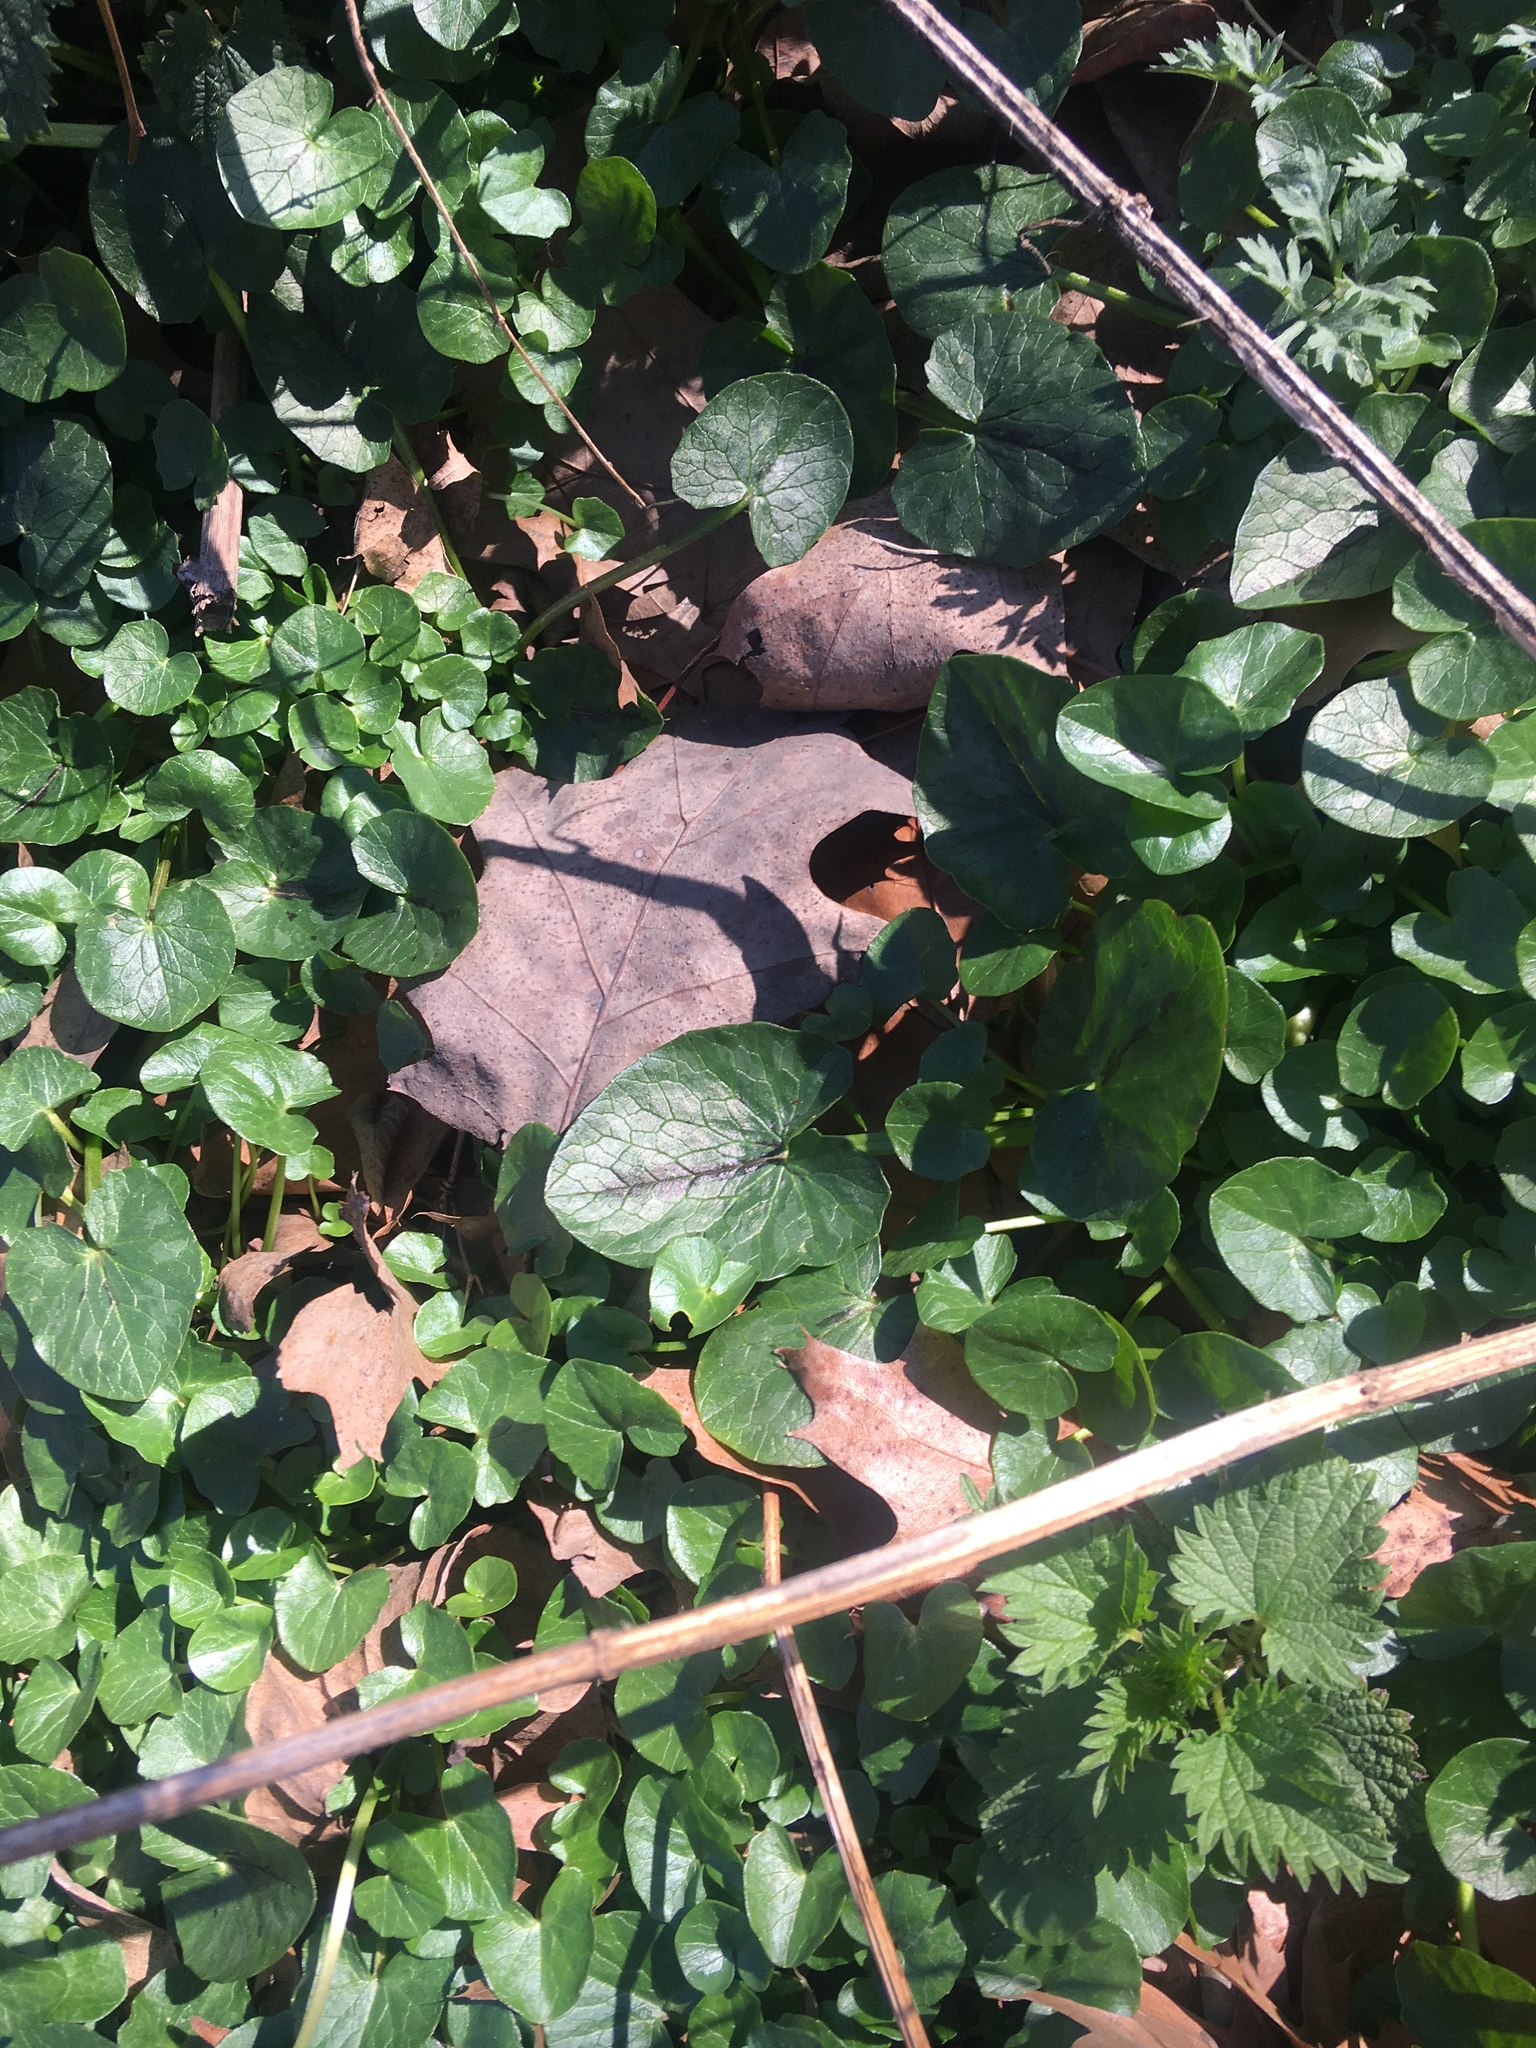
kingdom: Plantae
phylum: Tracheophyta
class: Magnoliopsida
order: Ranunculales
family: Ranunculaceae
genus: Ficaria
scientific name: Ficaria verna
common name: Lesser celandine
